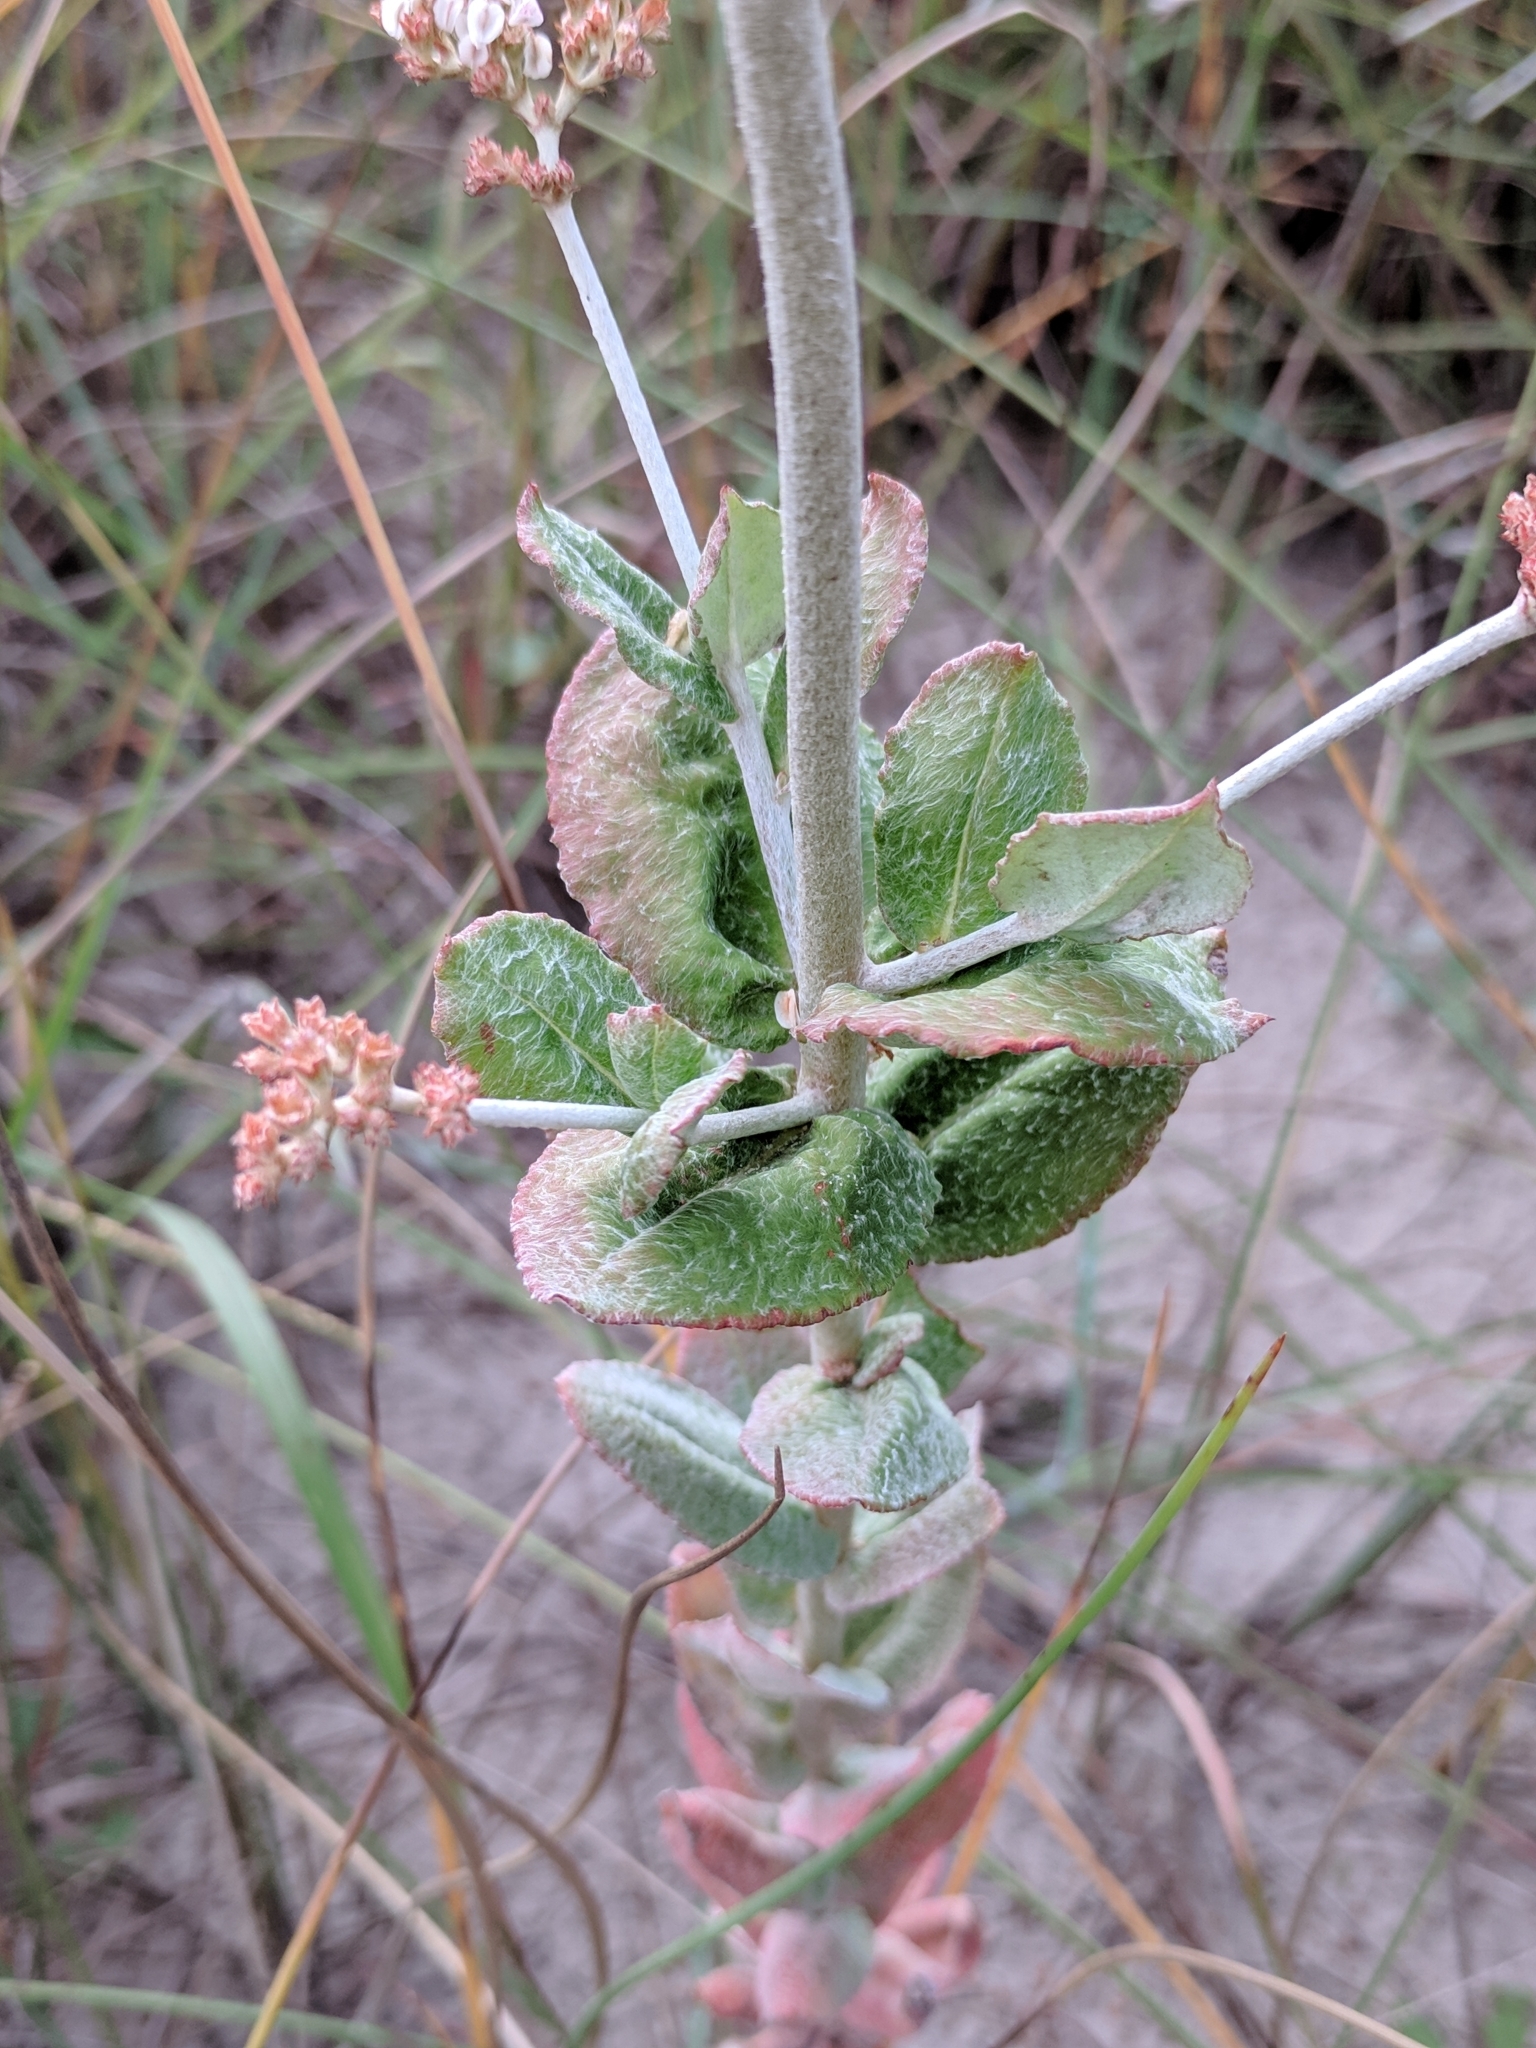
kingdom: Plantae
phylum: Tracheophyta
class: Magnoliopsida
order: Caryophyllales
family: Polygonaceae
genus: Eriogonum
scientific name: Eriogonum multiflorum
